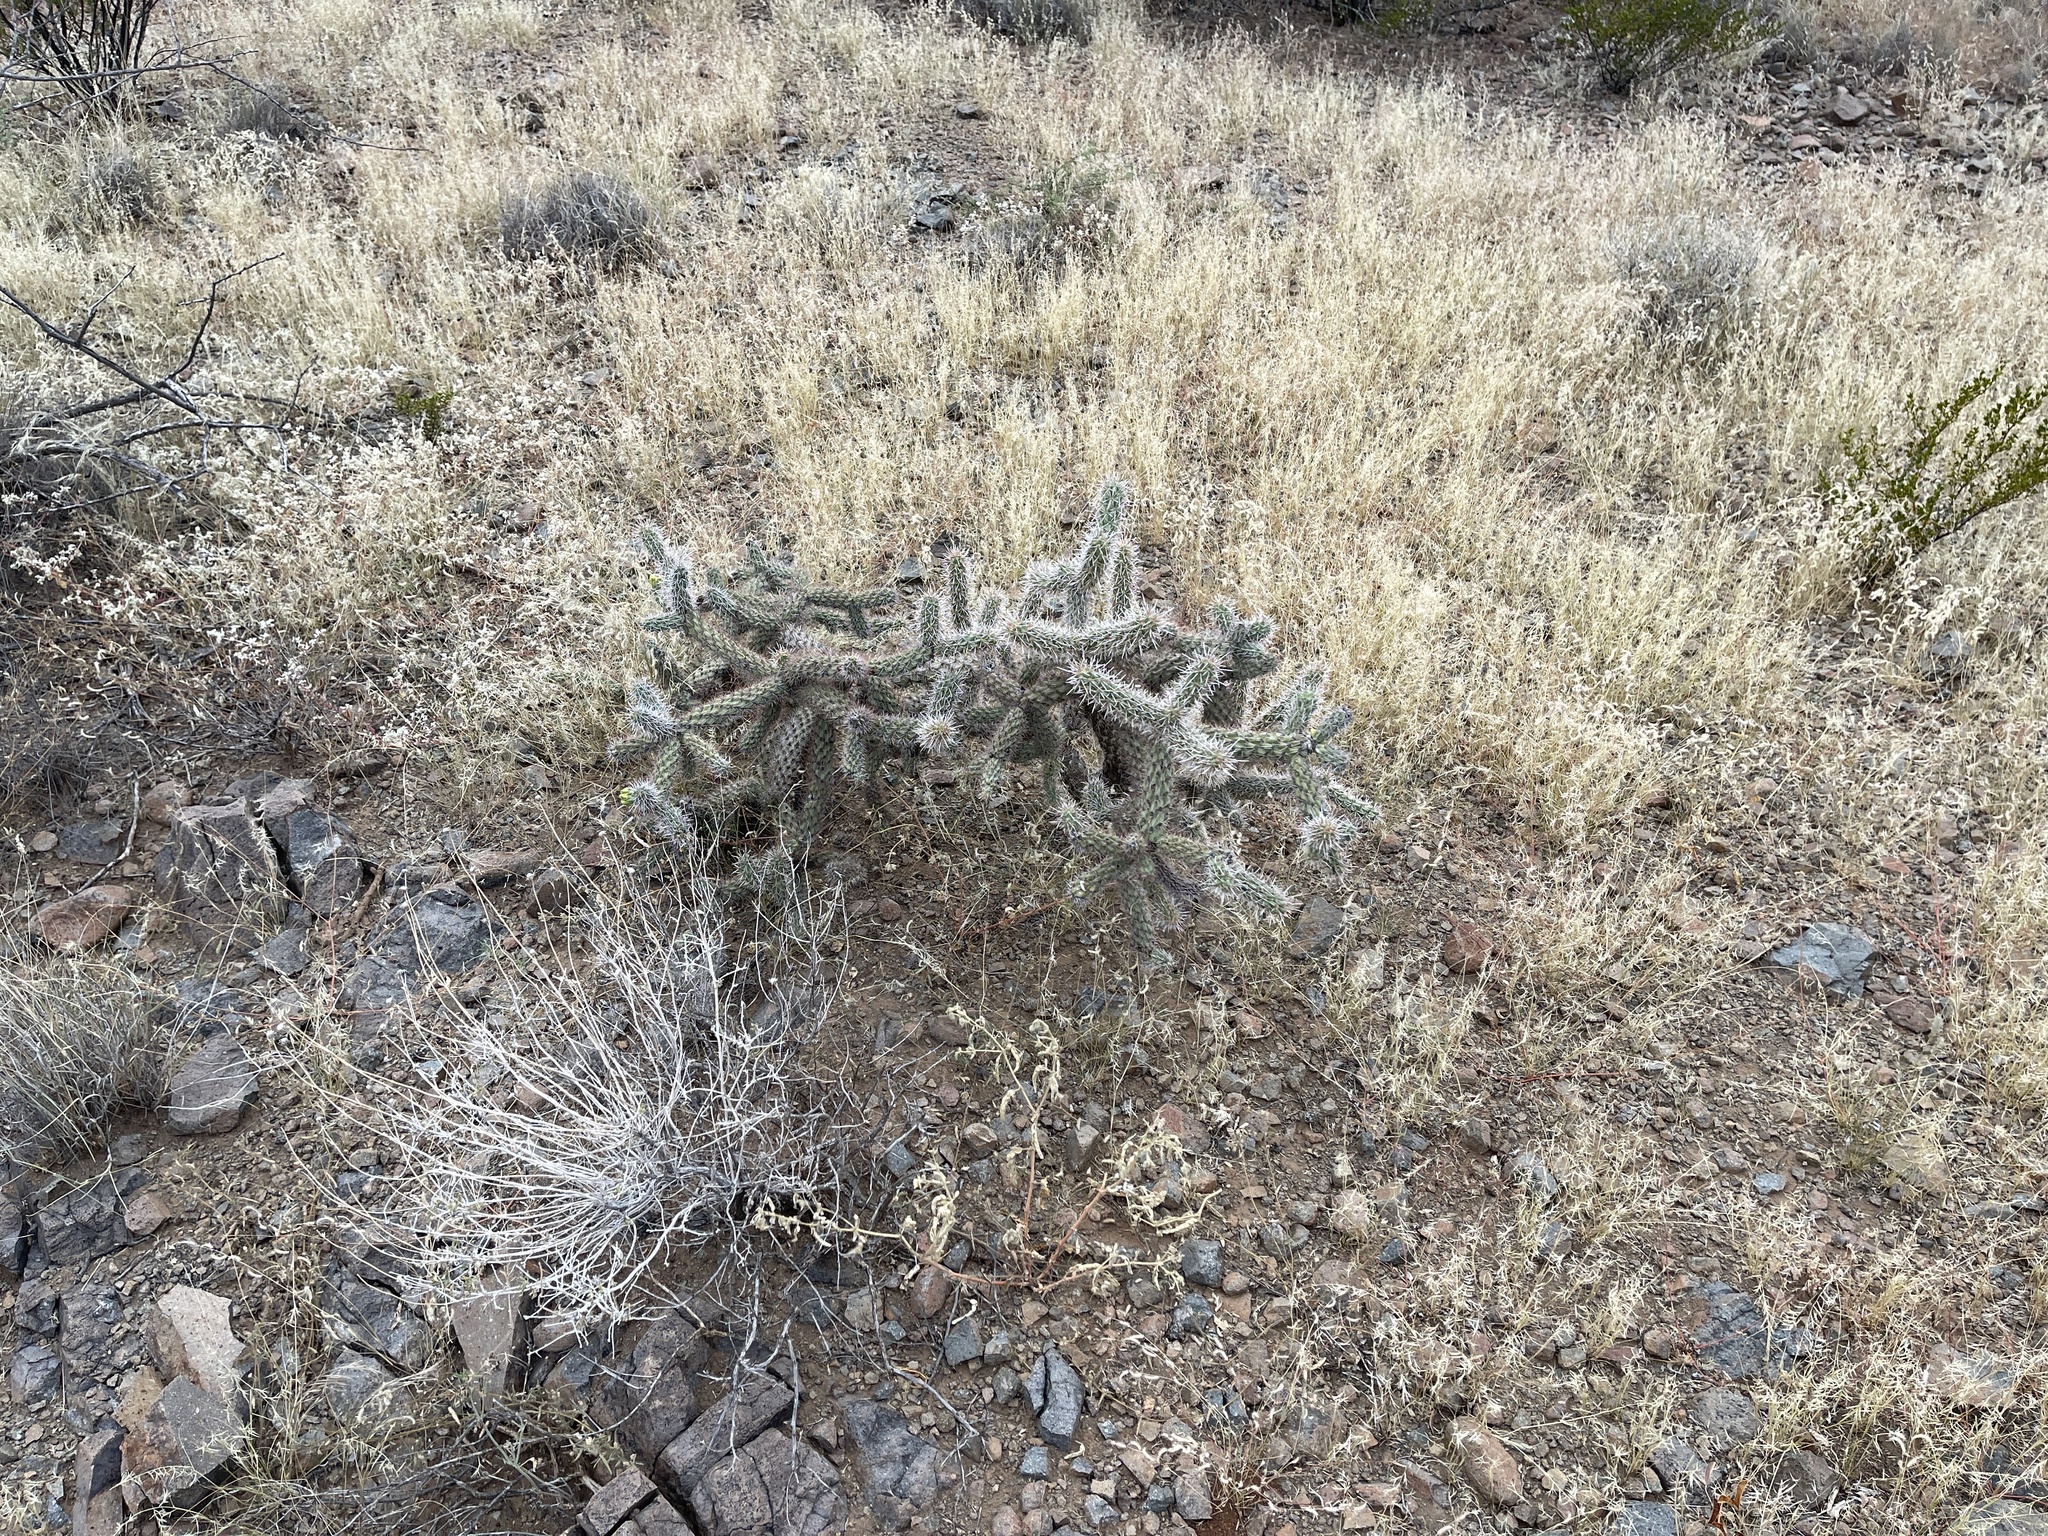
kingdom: Plantae
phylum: Tracheophyta
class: Magnoliopsida
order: Caryophyllales
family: Cactaceae
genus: Cylindropuntia
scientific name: Cylindropuntia imbricata
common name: Candelabrum cactus
